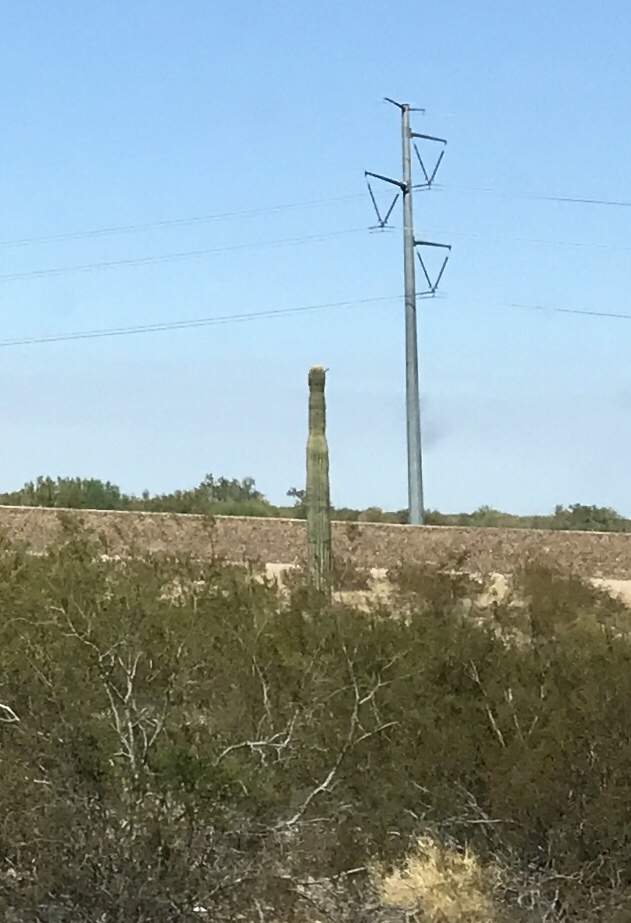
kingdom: Plantae
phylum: Tracheophyta
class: Magnoliopsida
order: Caryophyllales
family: Cactaceae
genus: Carnegiea
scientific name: Carnegiea gigantea
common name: Saguaro
